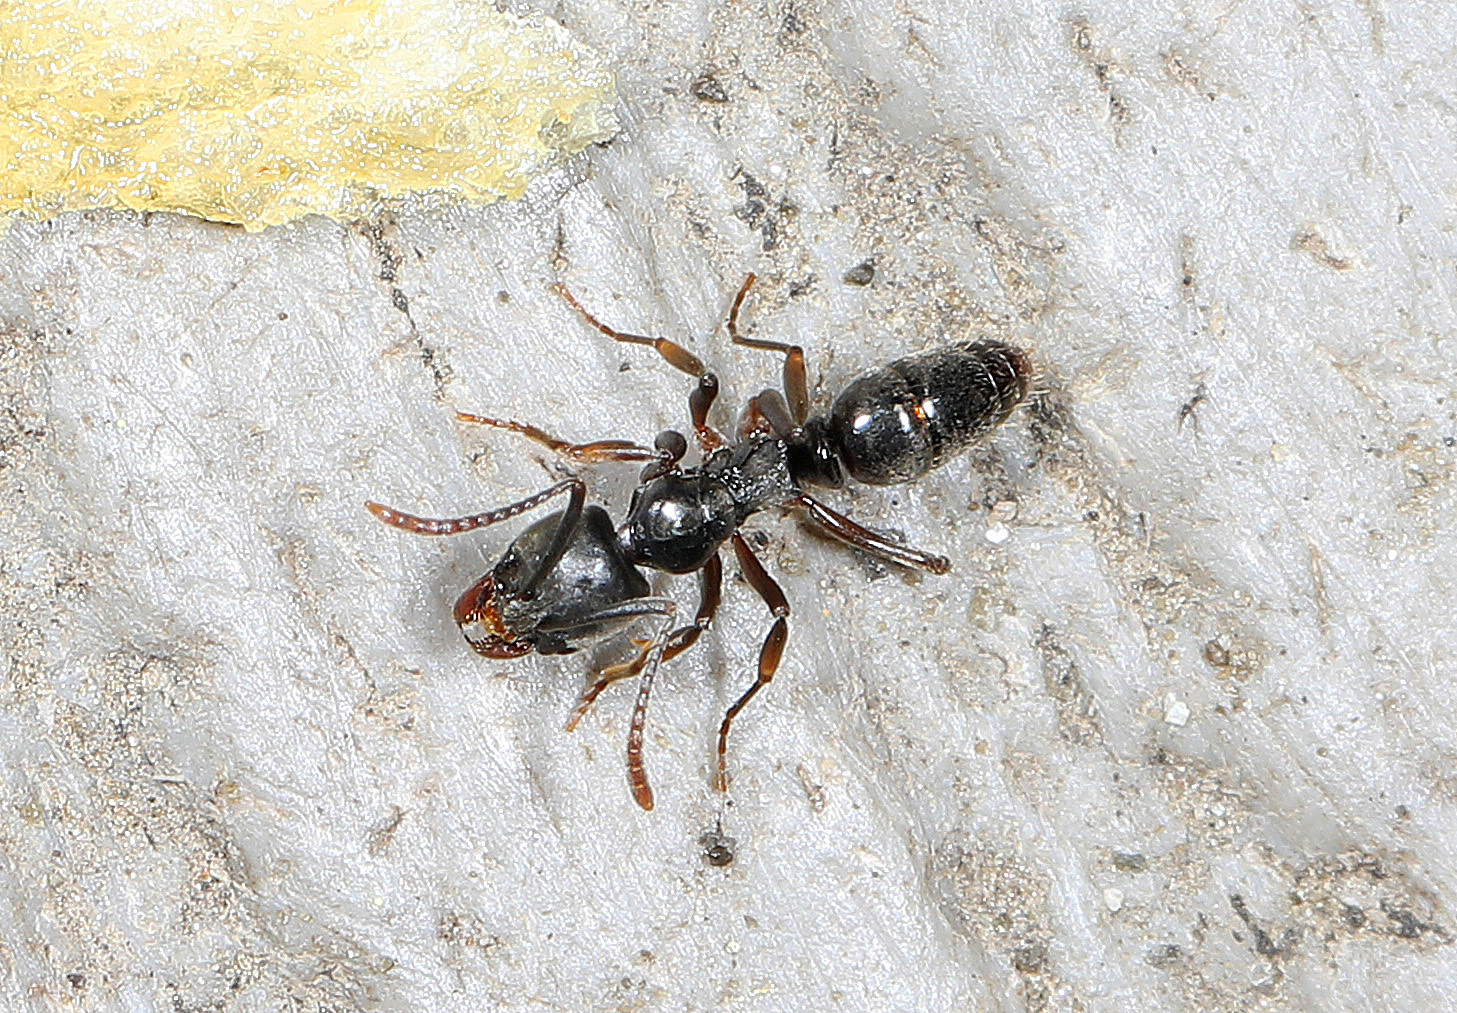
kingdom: Animalia
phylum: Arthropoda
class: Insecta
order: Hymenoptera
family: Formicidae
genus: Pachycondyla
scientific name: Pachycondyla chinensis
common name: Asian needle ant
